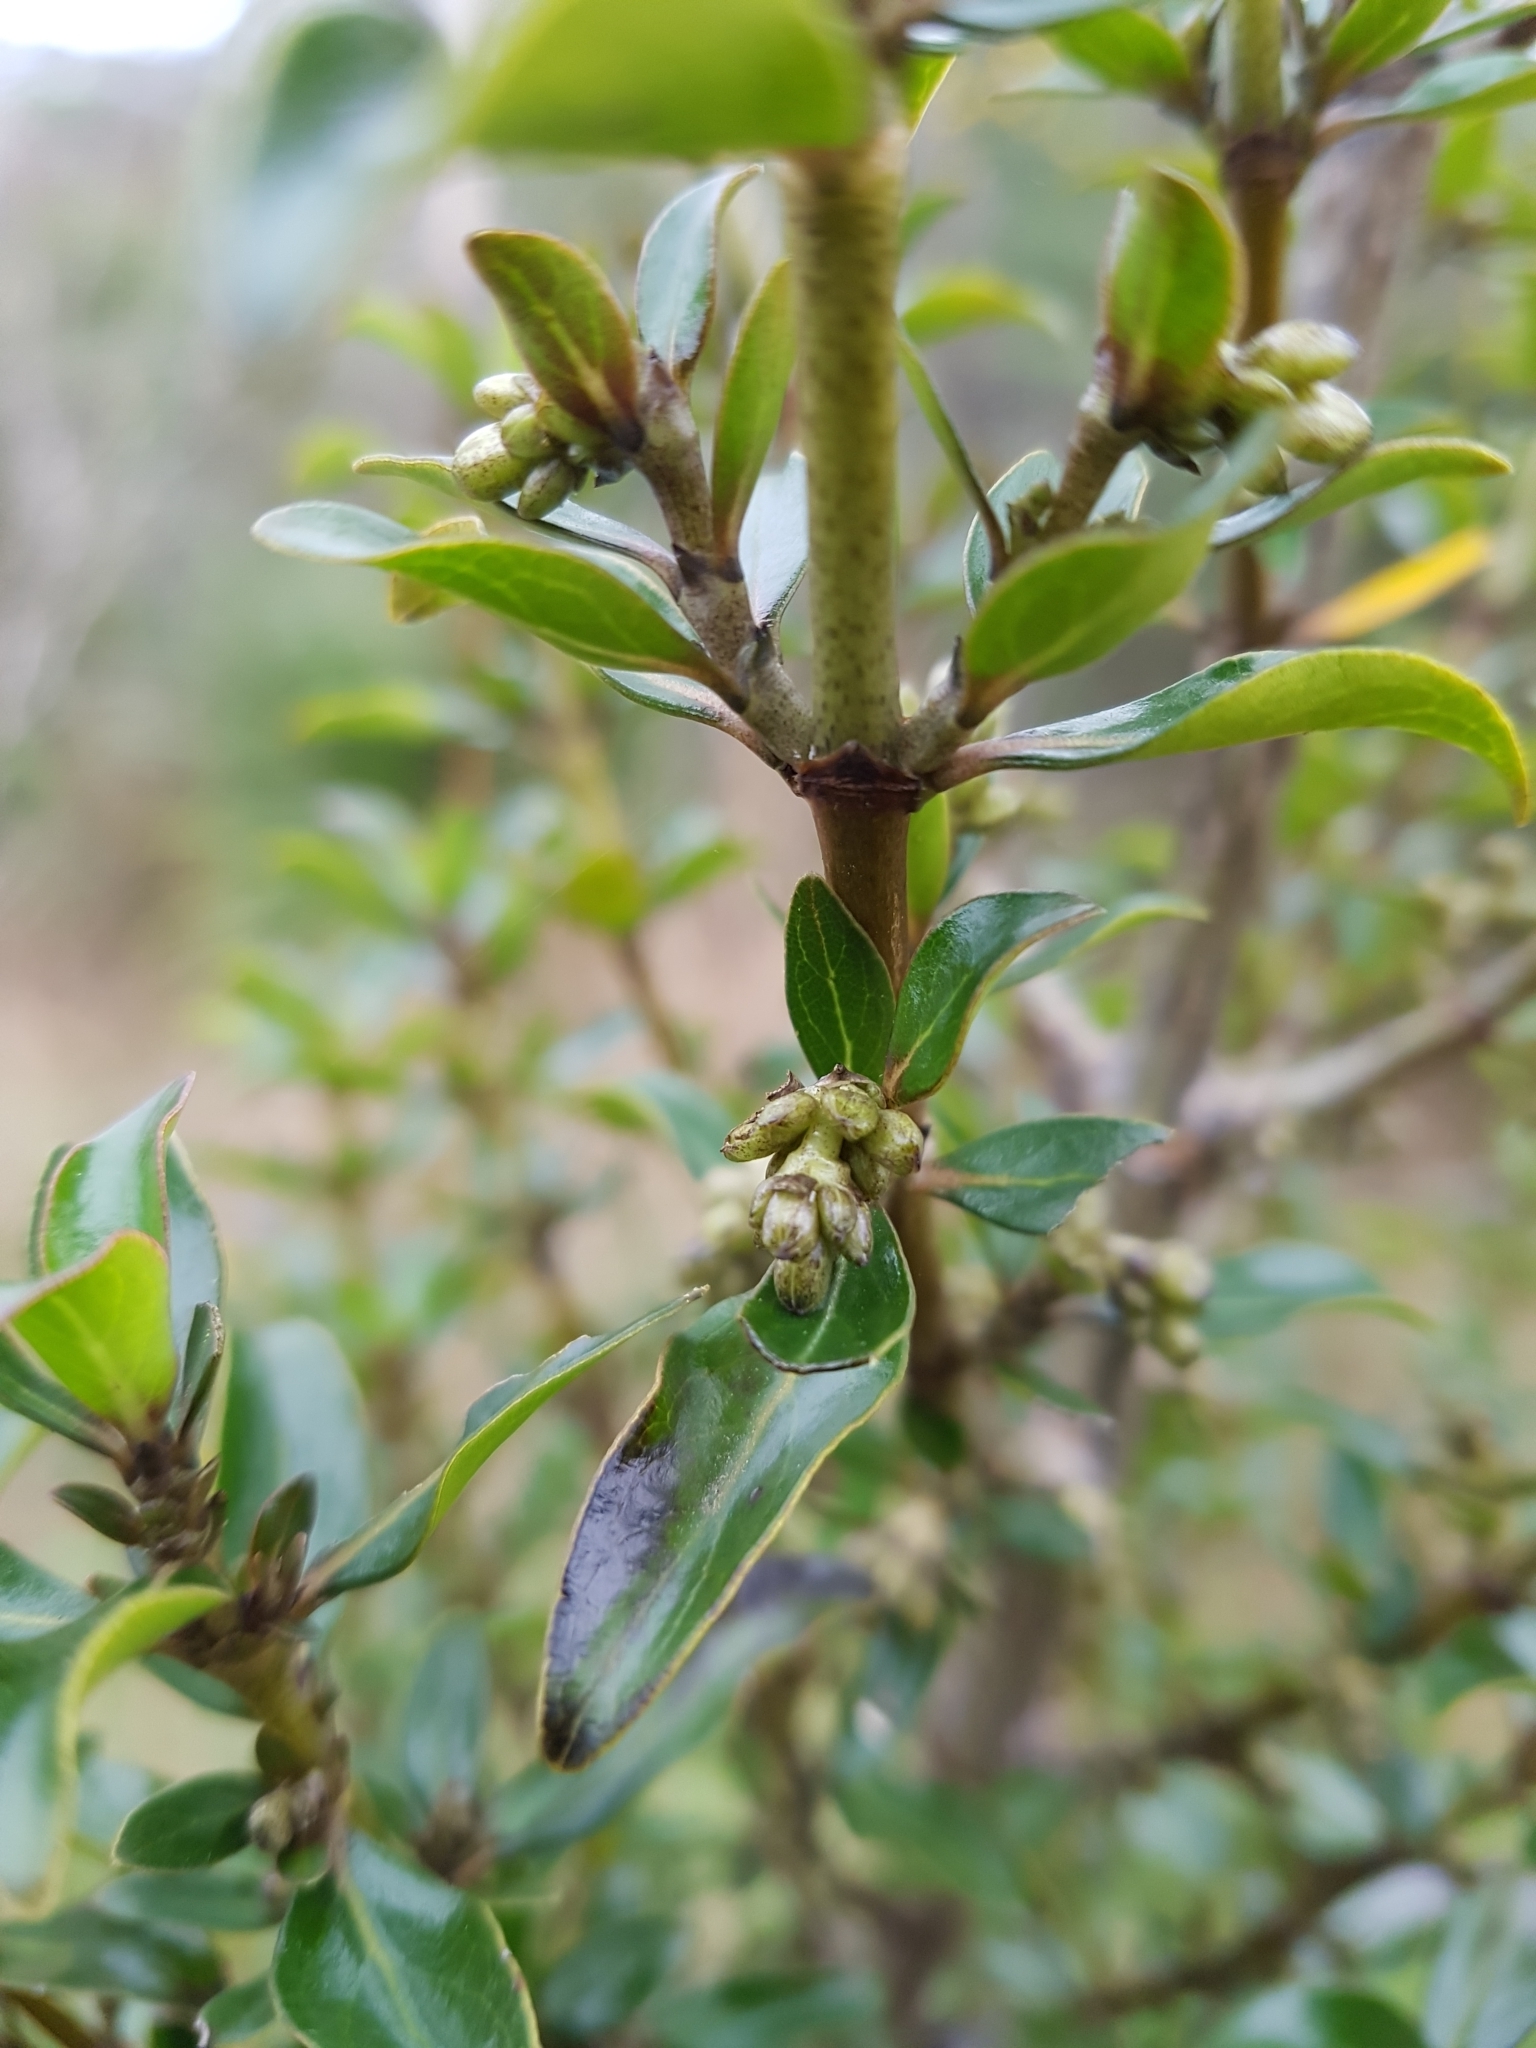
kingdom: Plantae
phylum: Tracheophyta
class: Magnoliopsida
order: Gentianales
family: Rubiaceae
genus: Coprosma
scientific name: Coprosma cunninghamii
